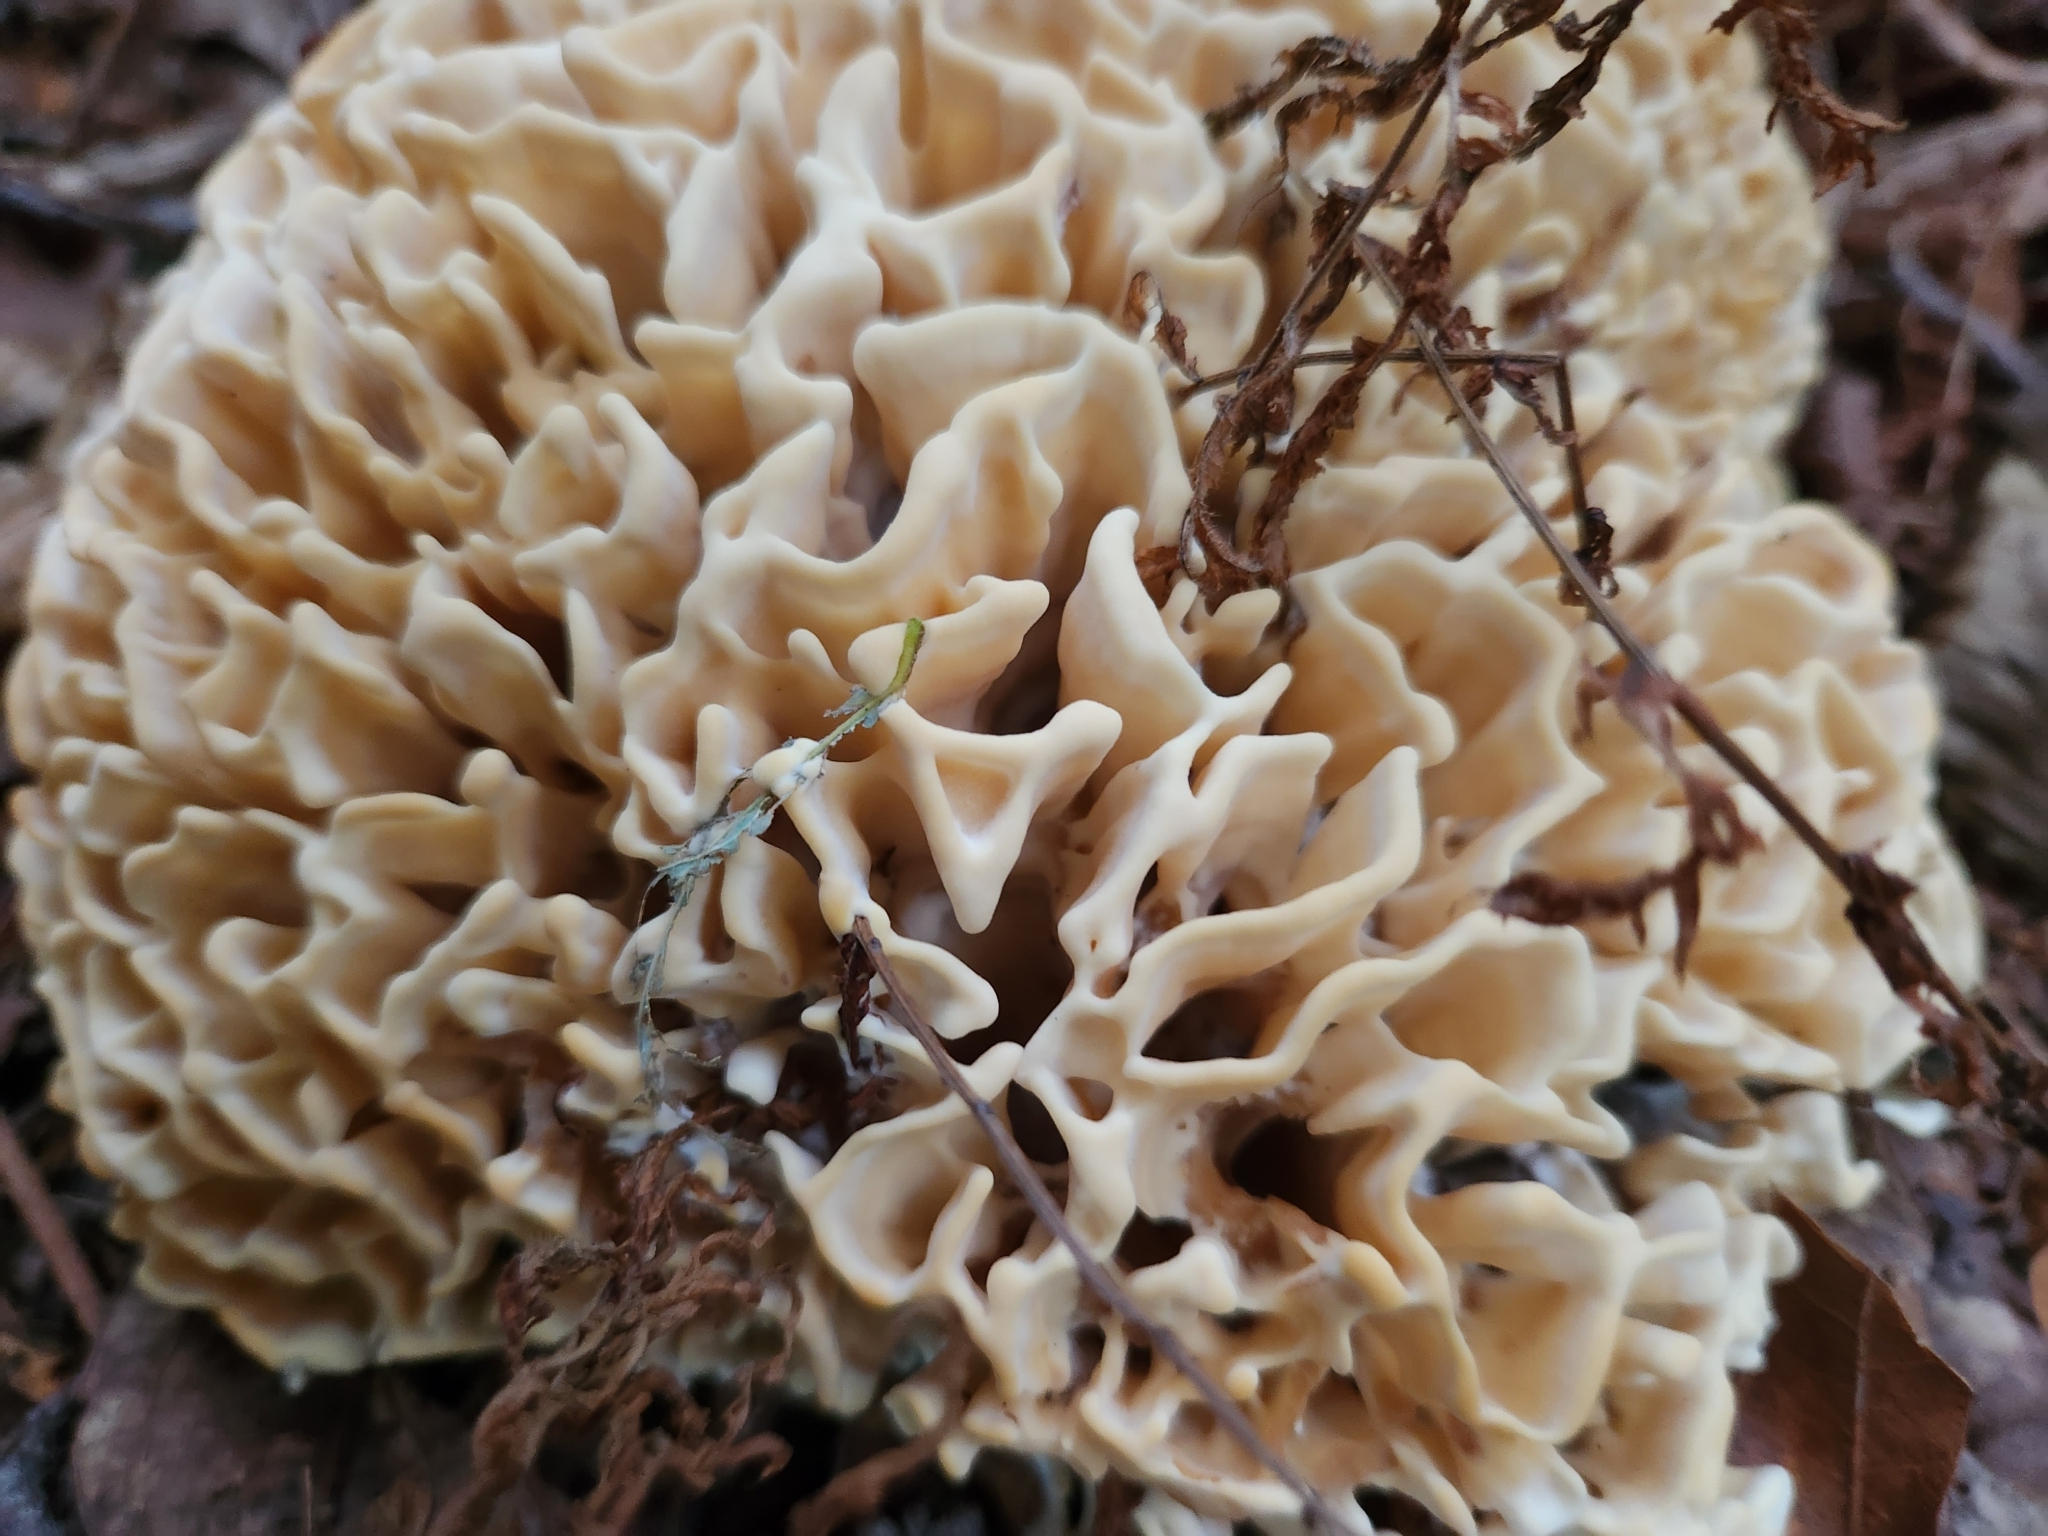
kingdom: Fungi
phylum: Basidiomycota
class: Agaricomycetes
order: Polyporales
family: Sparassidaceae
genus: Sparassis
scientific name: Sparassis spathulata
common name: Eastern cauliflower mushroom
